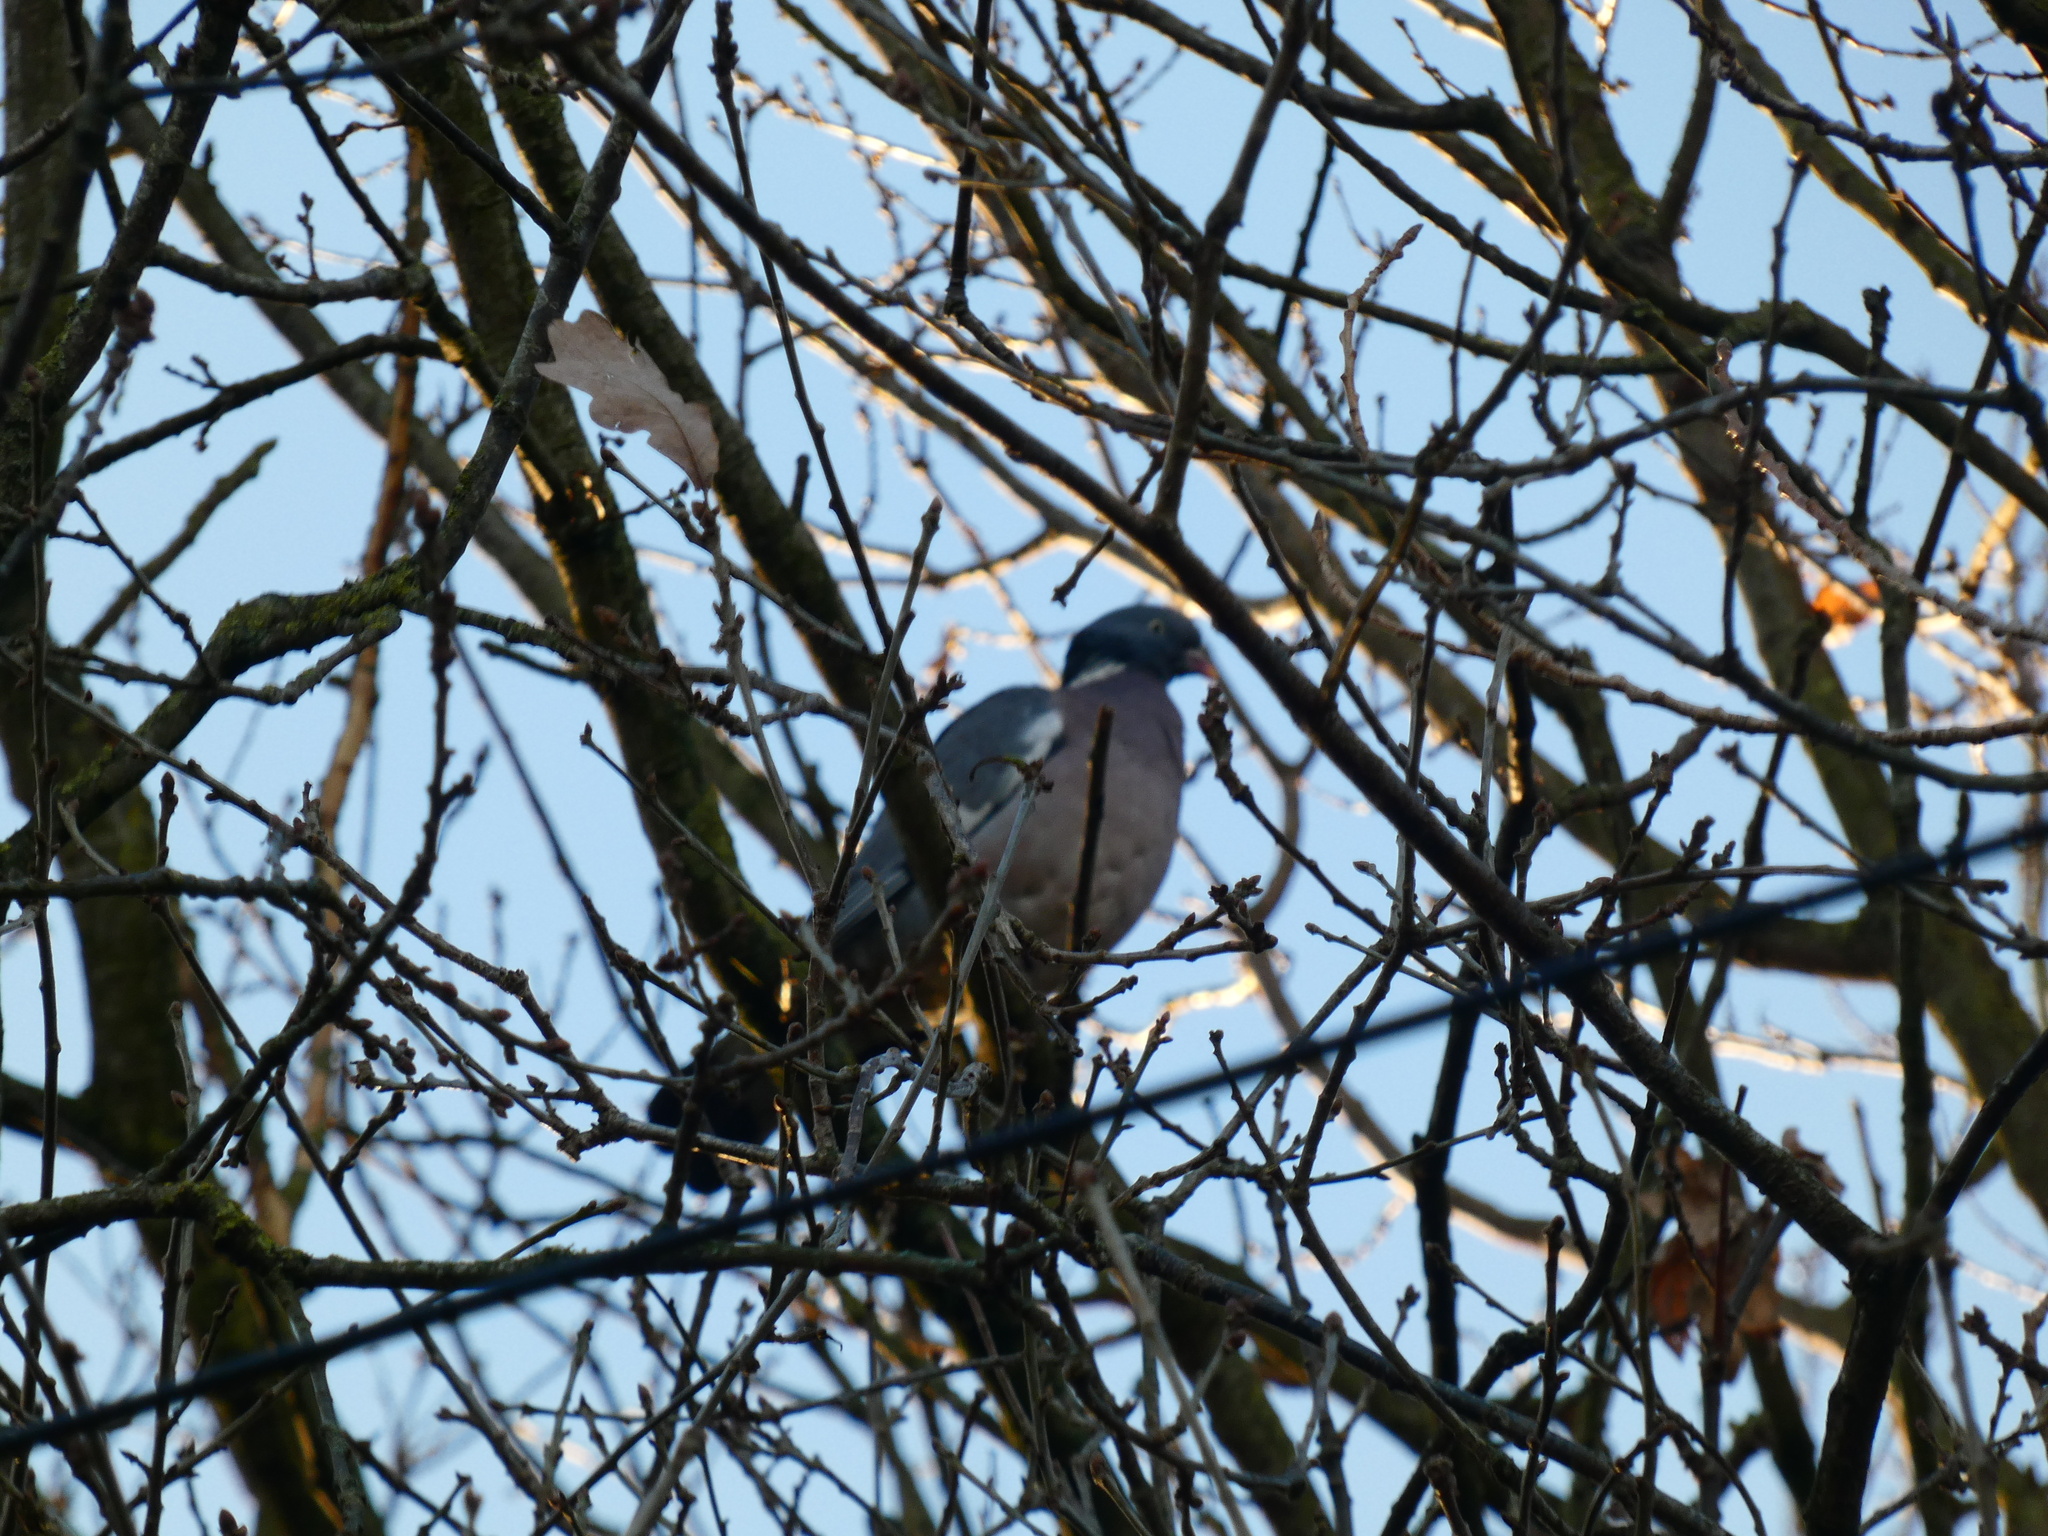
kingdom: Animalia
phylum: Chordata
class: Aves
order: Columbiformes
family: Columbidae
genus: Columba
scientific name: Columba palumbus
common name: Common wood pigeon
